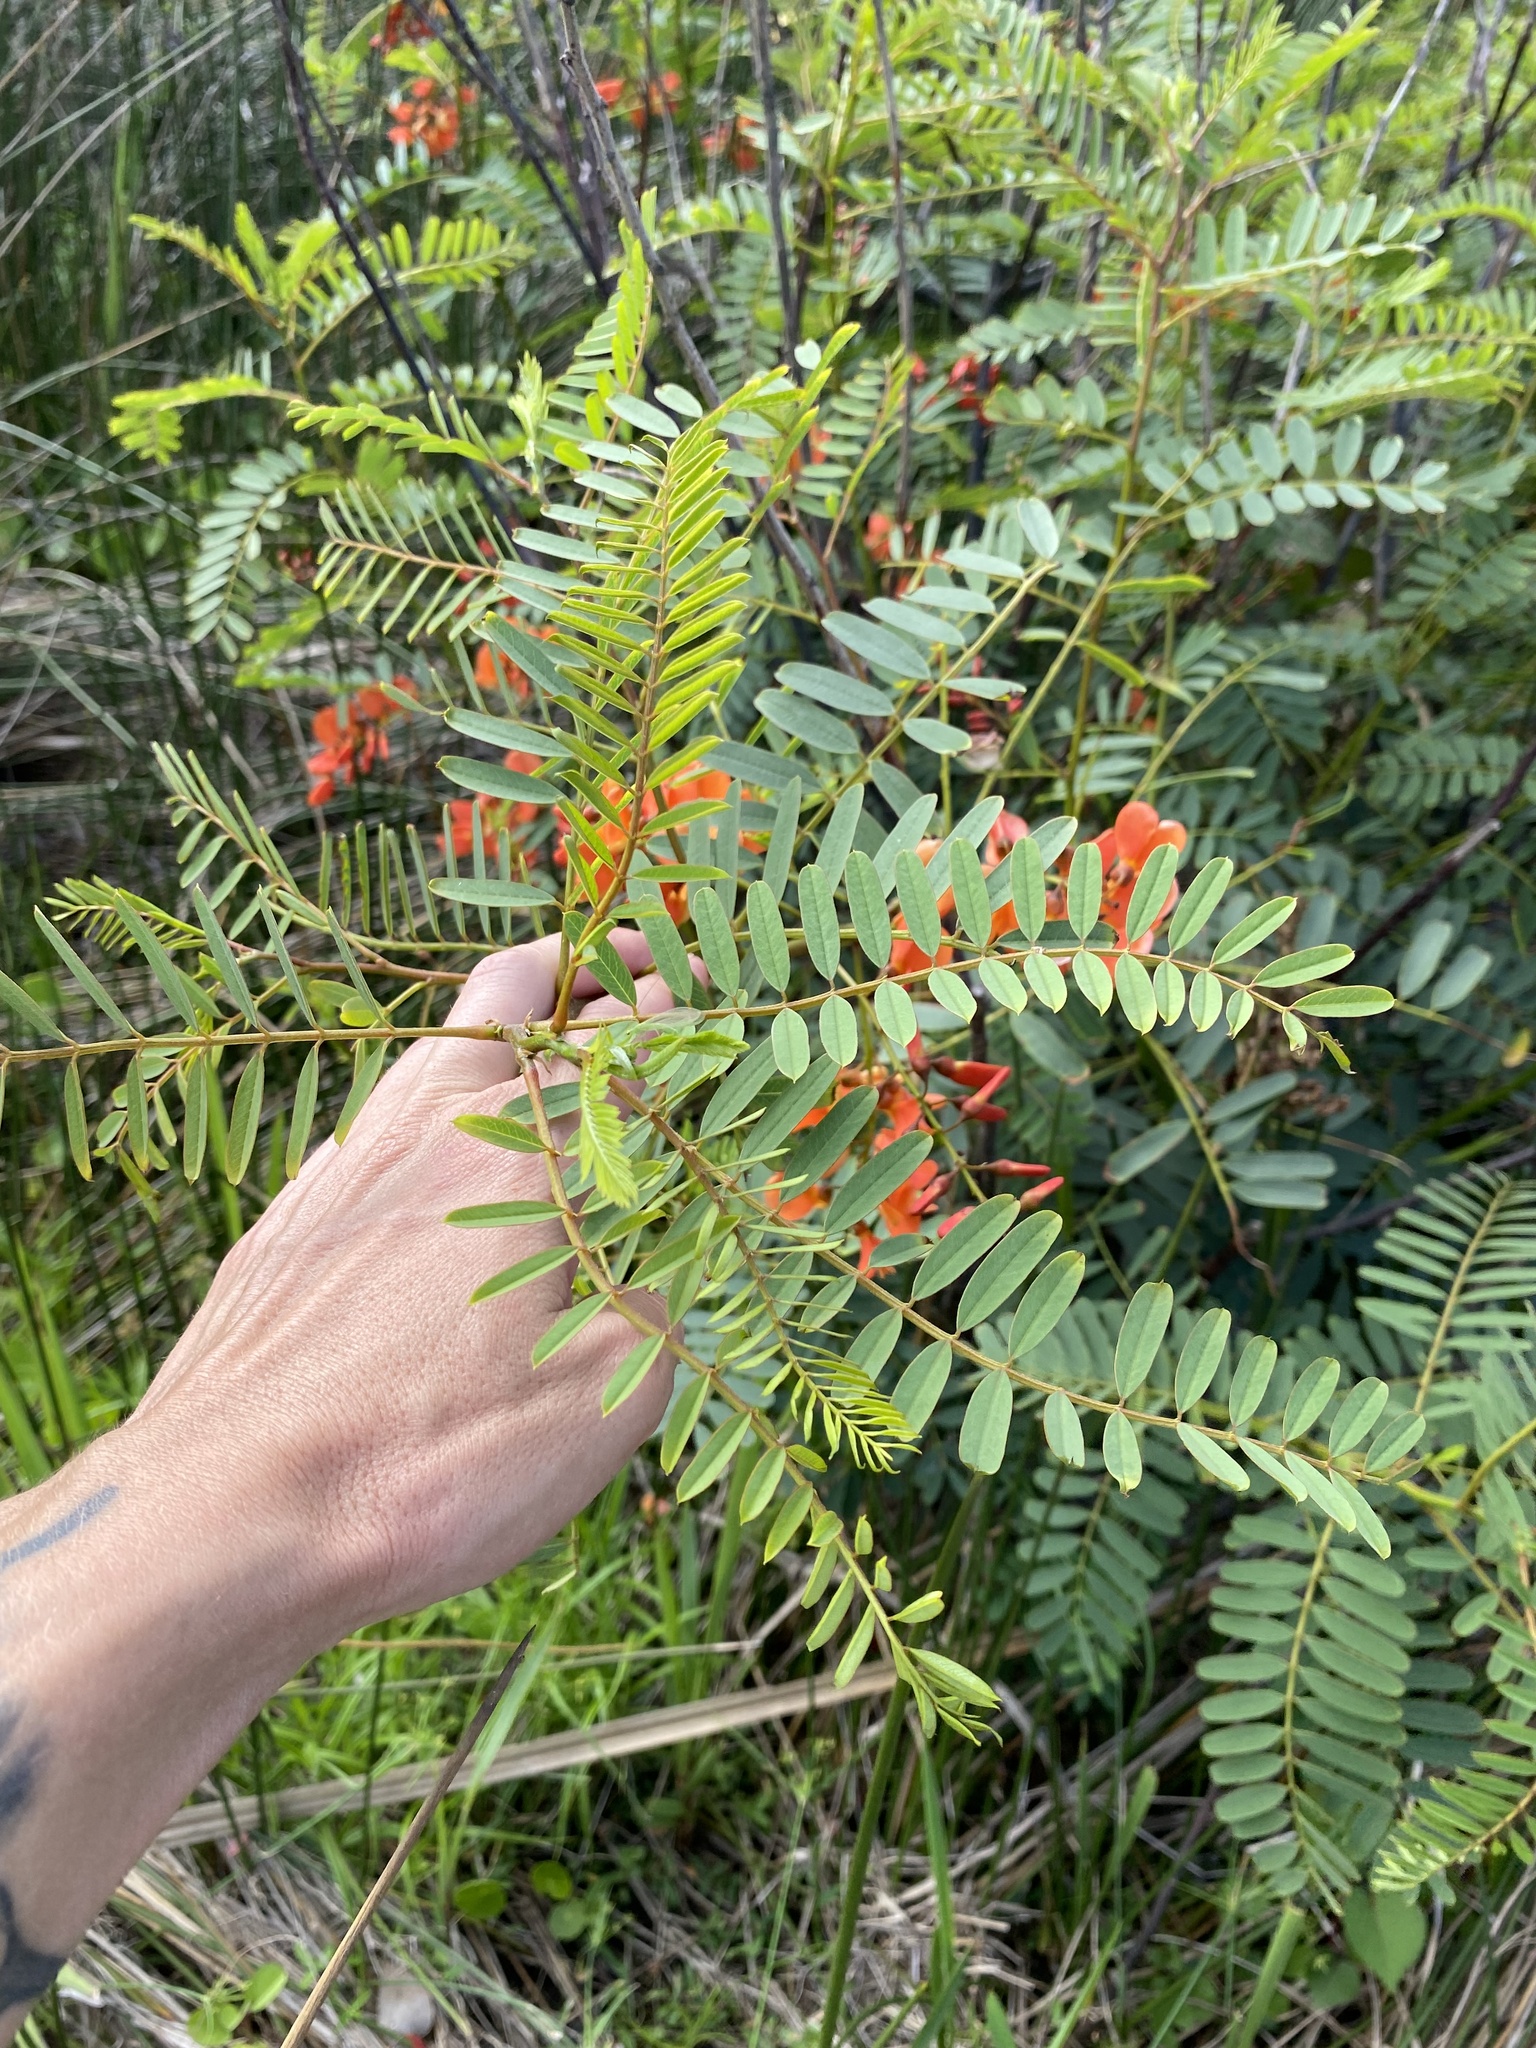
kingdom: Plantae
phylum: Tracheophyta
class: Magnoliopsida
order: Fabales
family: Fabaceae
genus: Sesbania
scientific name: Sesbania punicea
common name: Rattlebox
